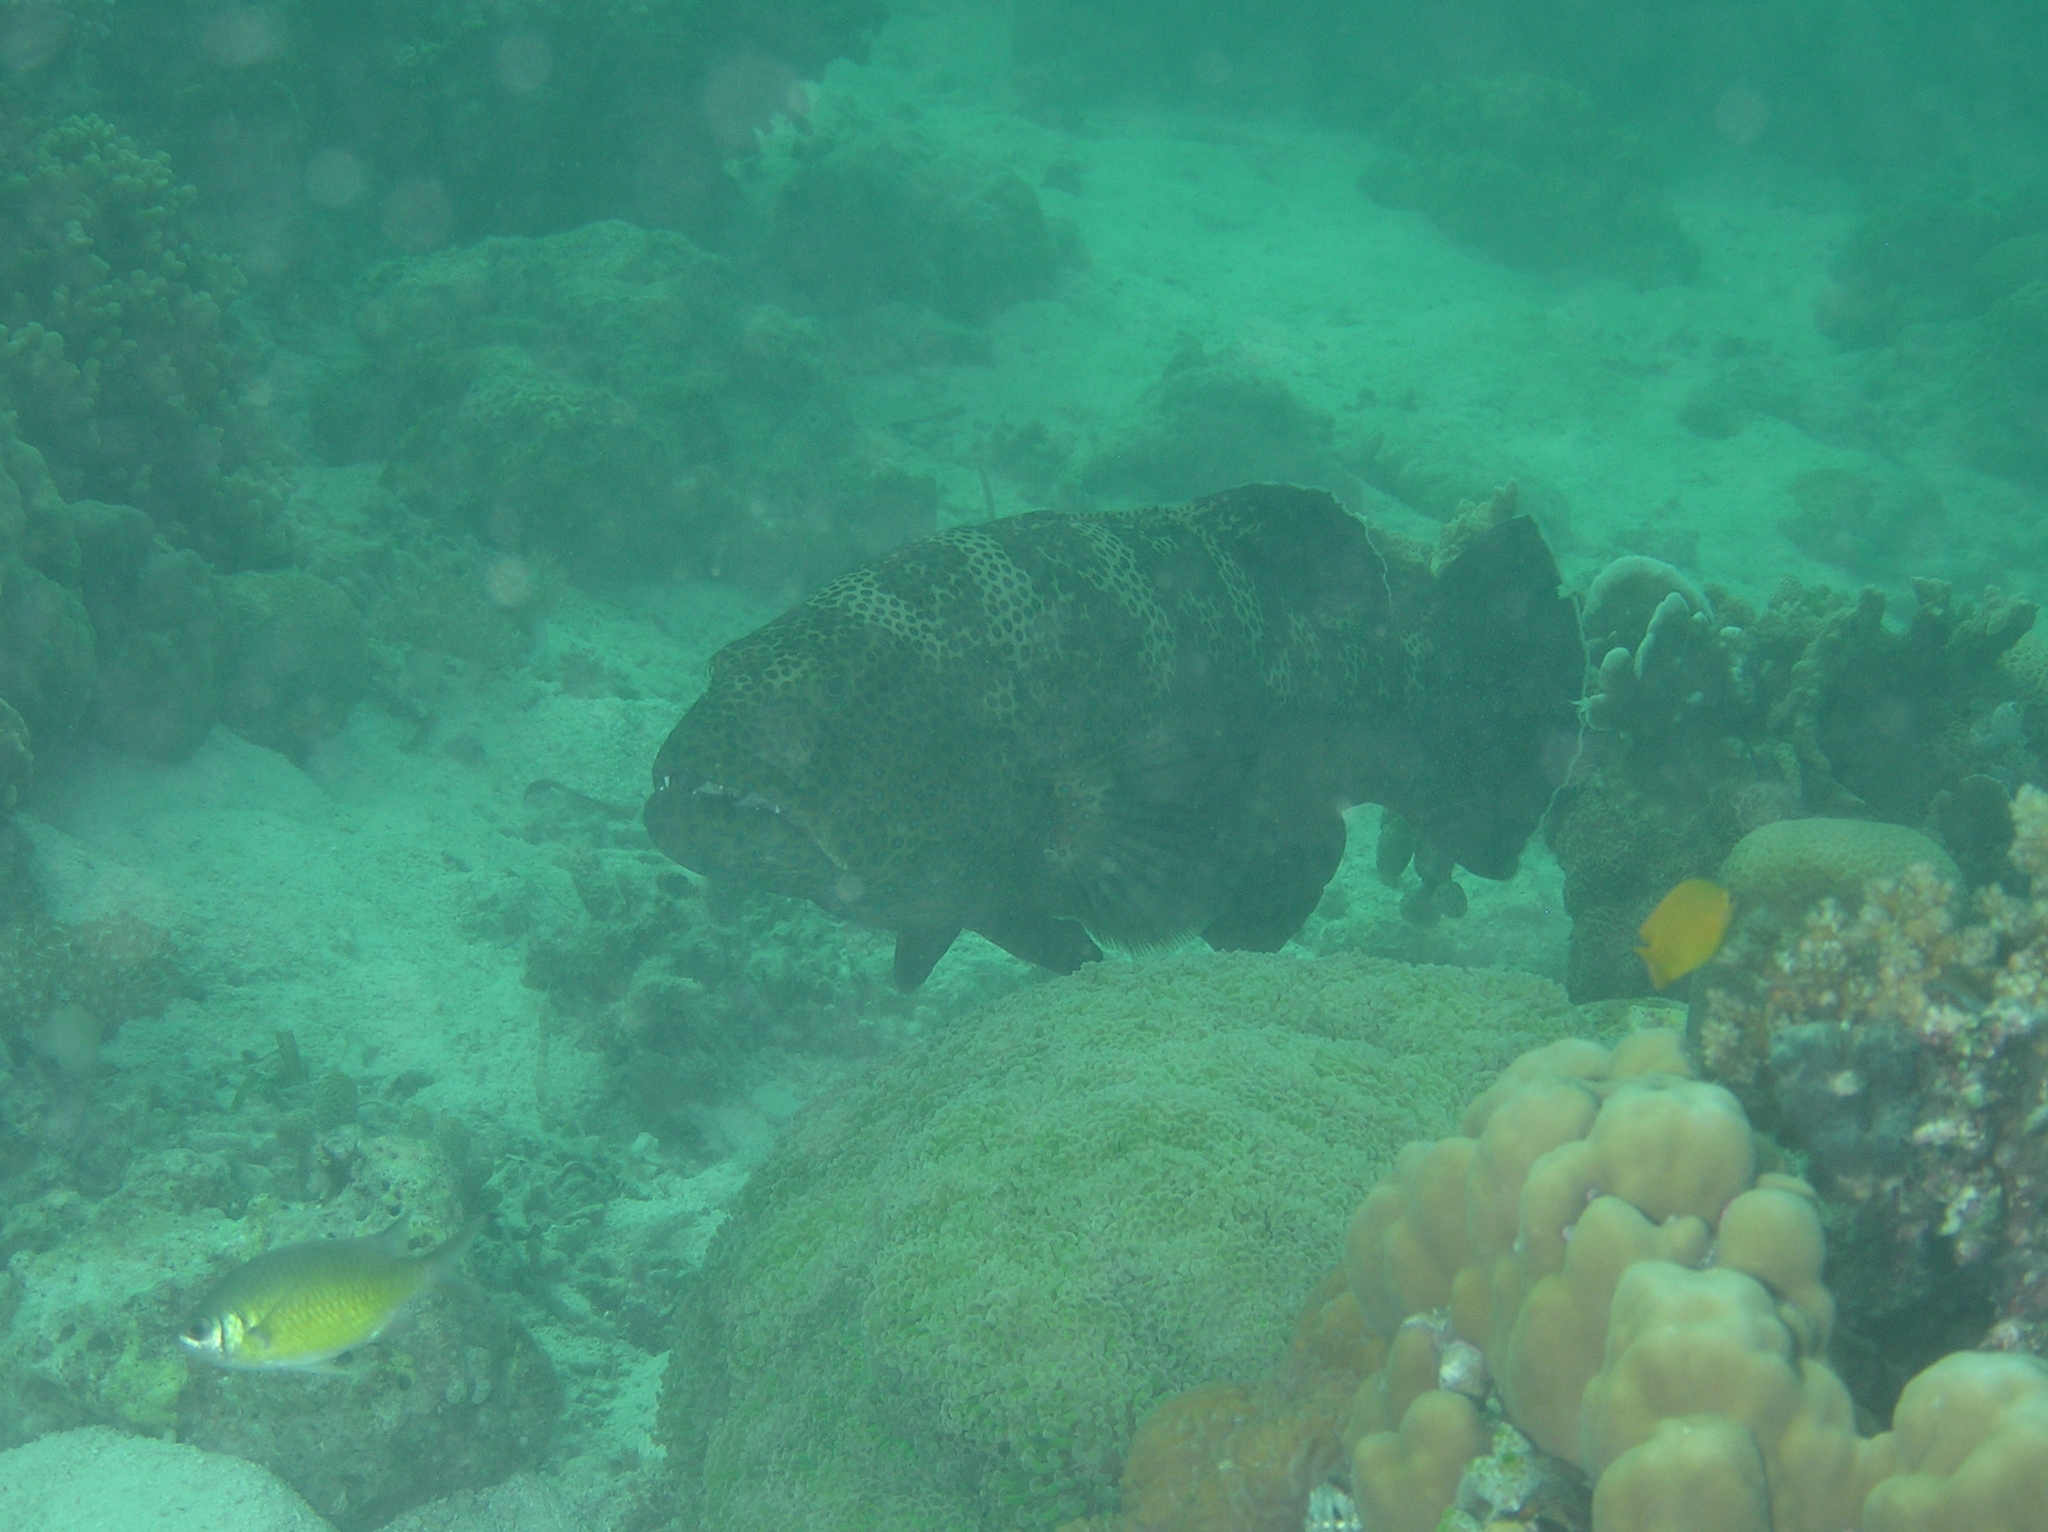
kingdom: Animalia
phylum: Chordata
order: Perciformes
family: Serranidae
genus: Plectropomus
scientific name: Plectropomus areolatus
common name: Squaretail coralgrouper
